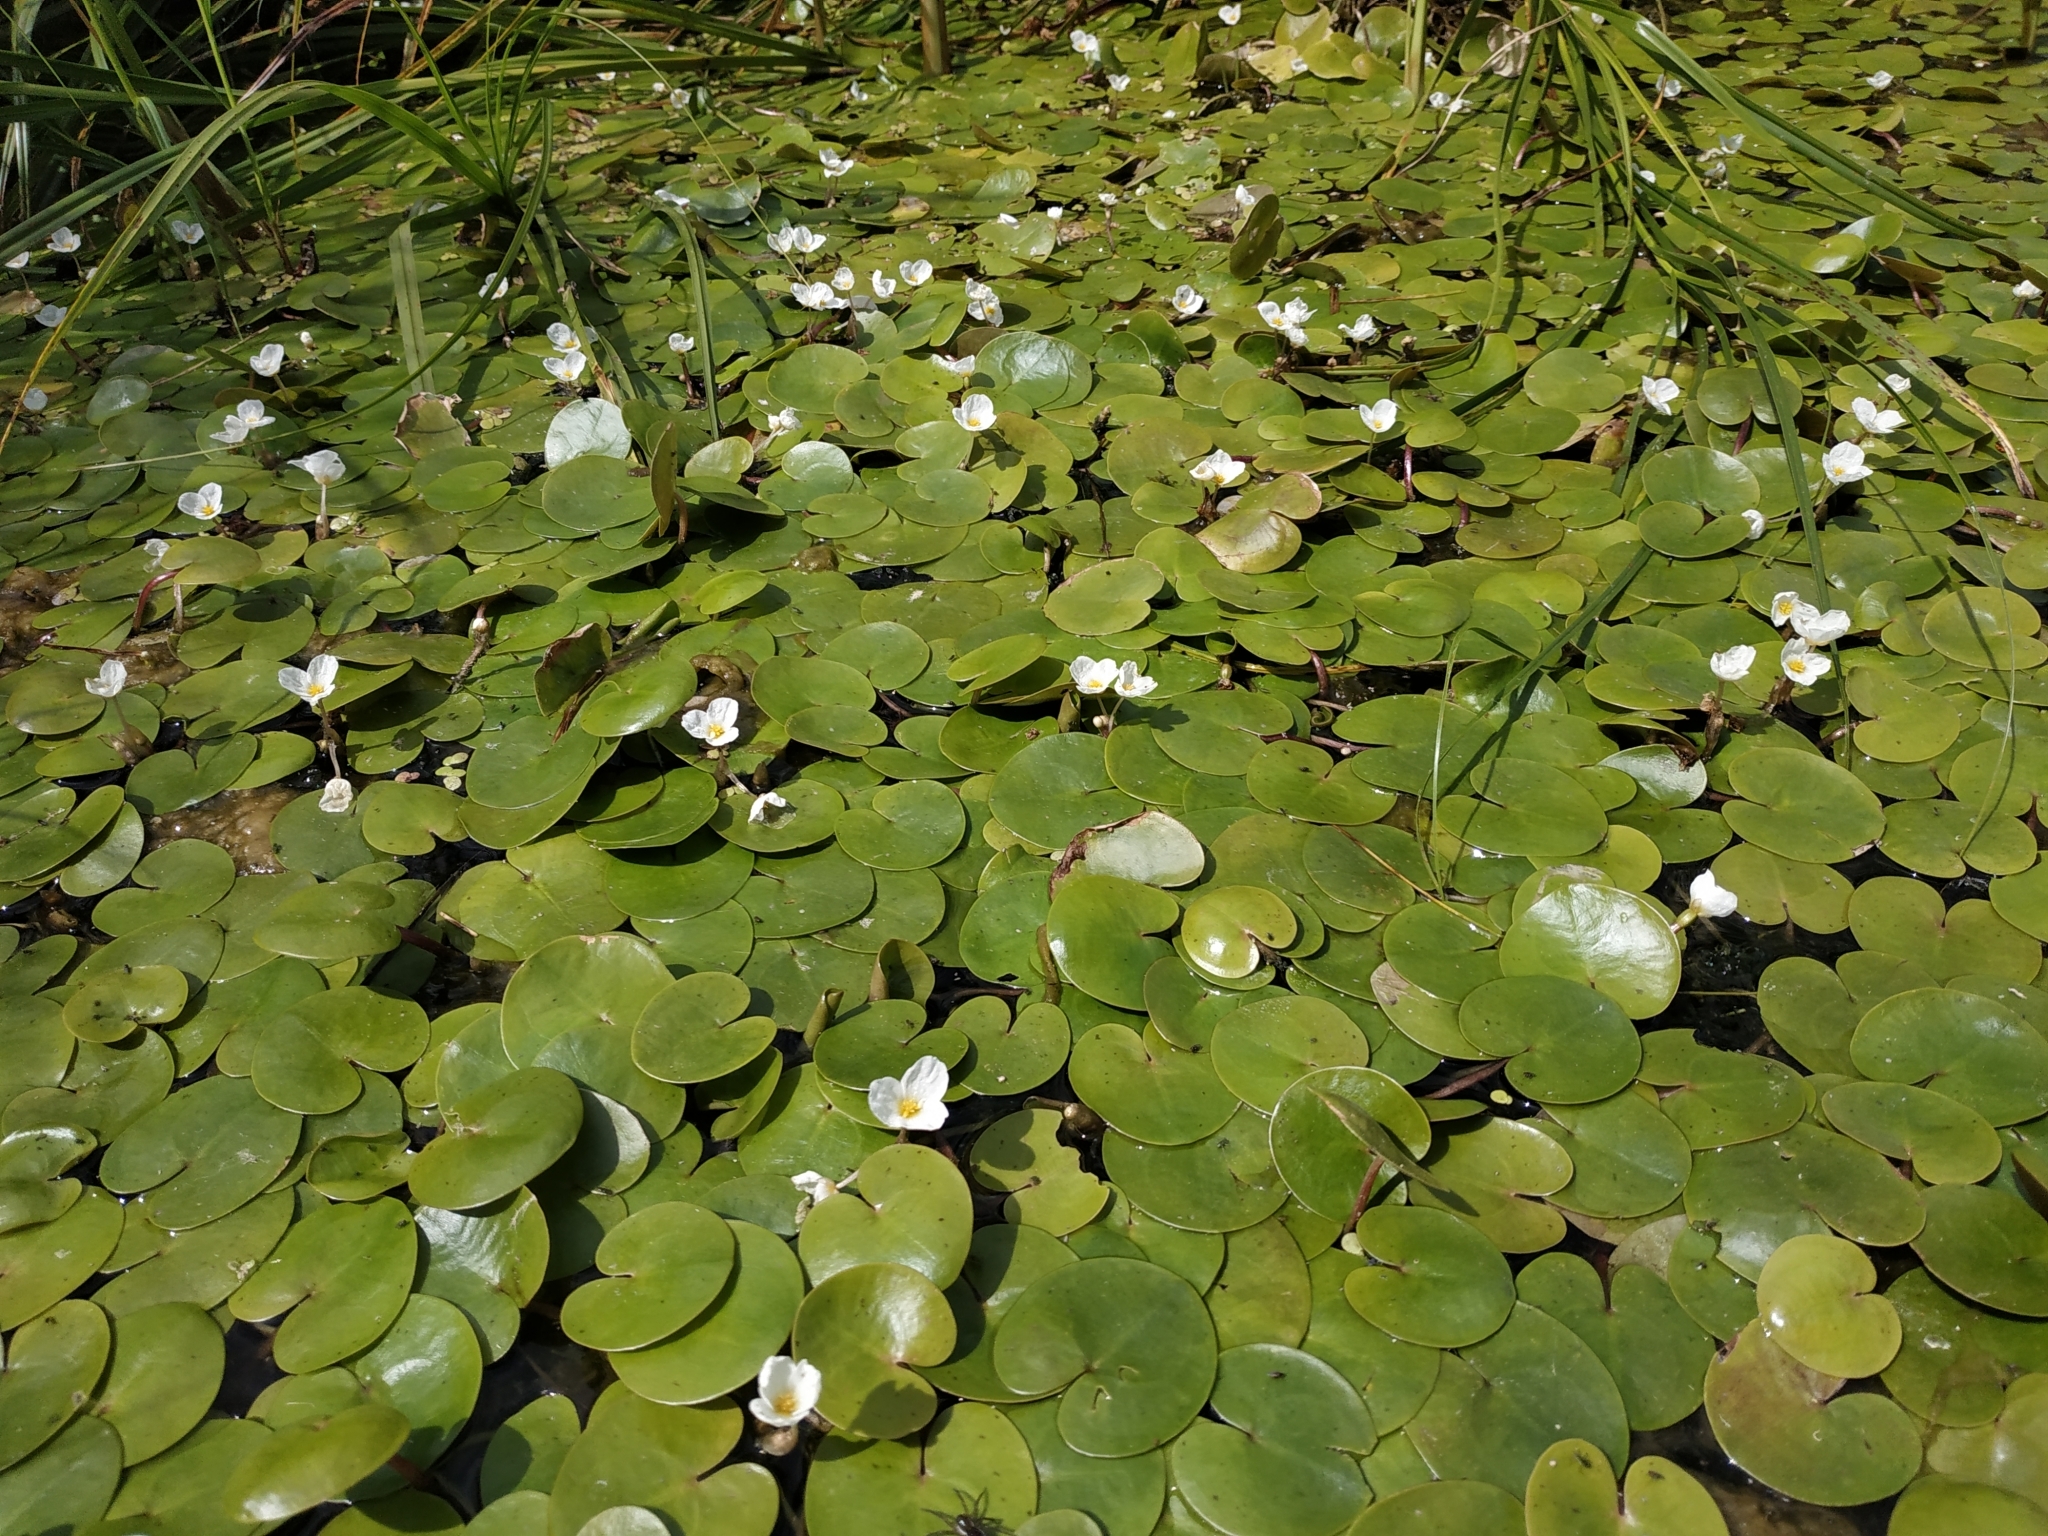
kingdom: Plantae
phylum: Tracheophyta
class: Liliopsida
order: Alismatales
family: Hydrocharitaceae
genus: Hydrocharis
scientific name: Hydrocharis morsus-ranae
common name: Frogbit
